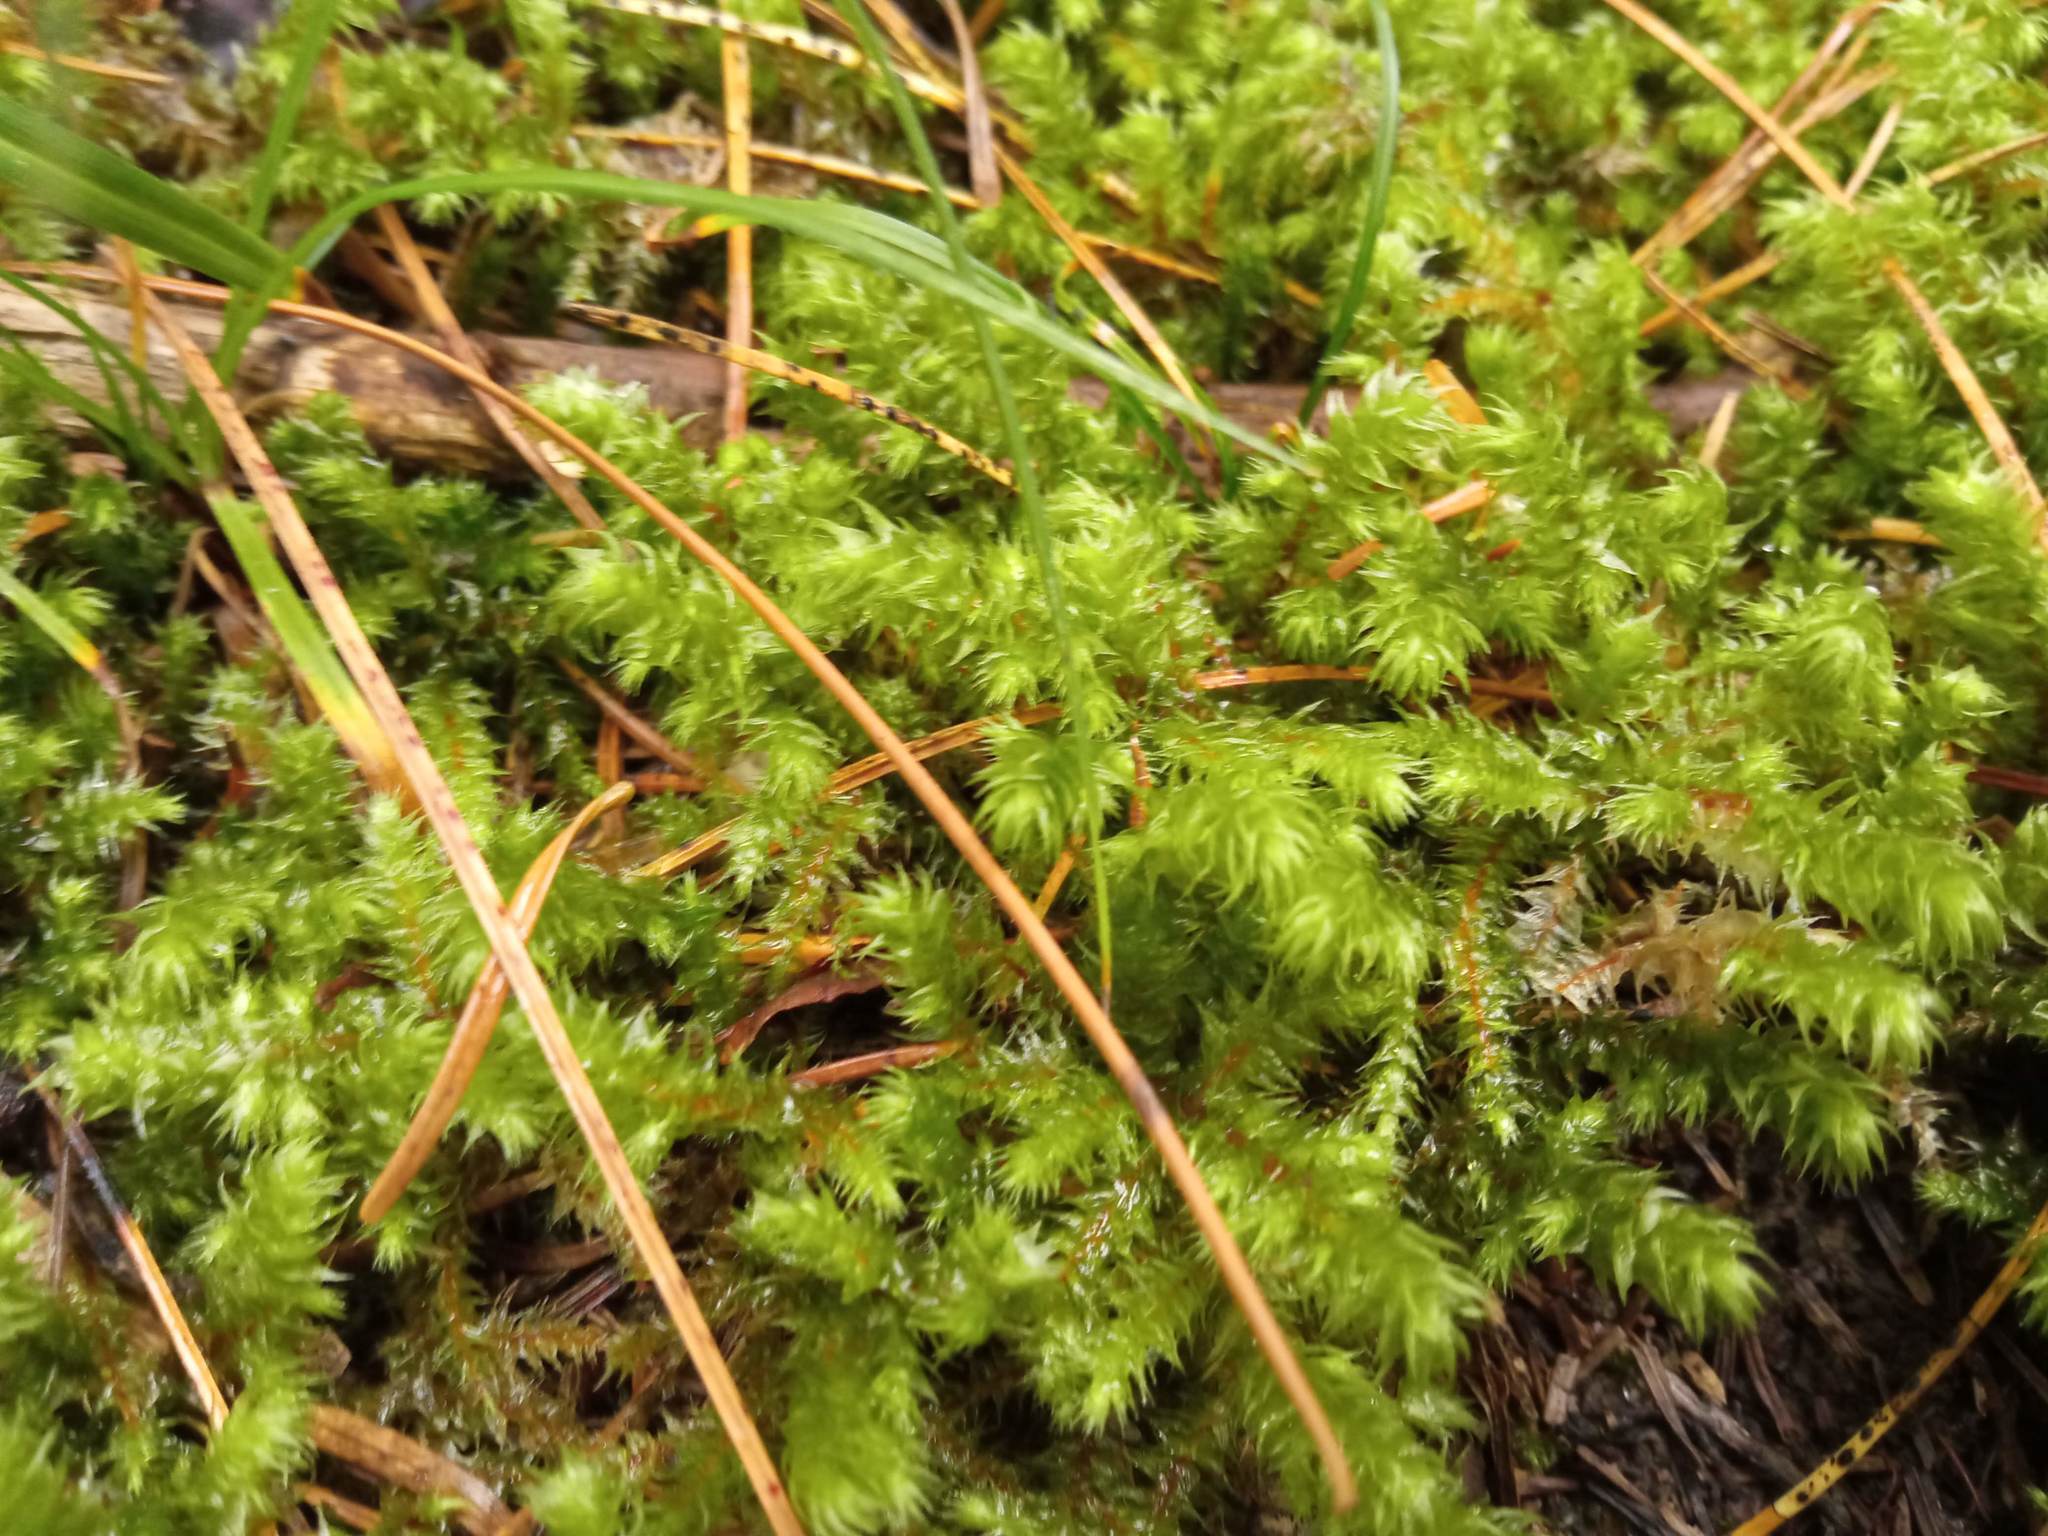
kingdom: Plantae
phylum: Bryophyta
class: Bryopsida
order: Hypnales
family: Hylocomiaceae
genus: Hylocomiadelphus
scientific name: Hylocomiadelphus triquetrus
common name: Rough goose neck moss
